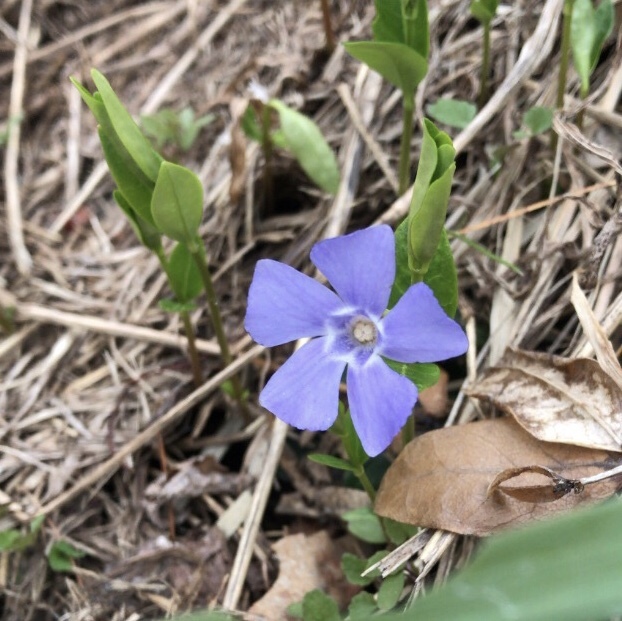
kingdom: Plantae
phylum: Tracheophyta
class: Magnoliopsida
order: Gentianales
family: Apocynaceae
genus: Vinca
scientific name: Vinca minor
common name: Lesser periwinkle
